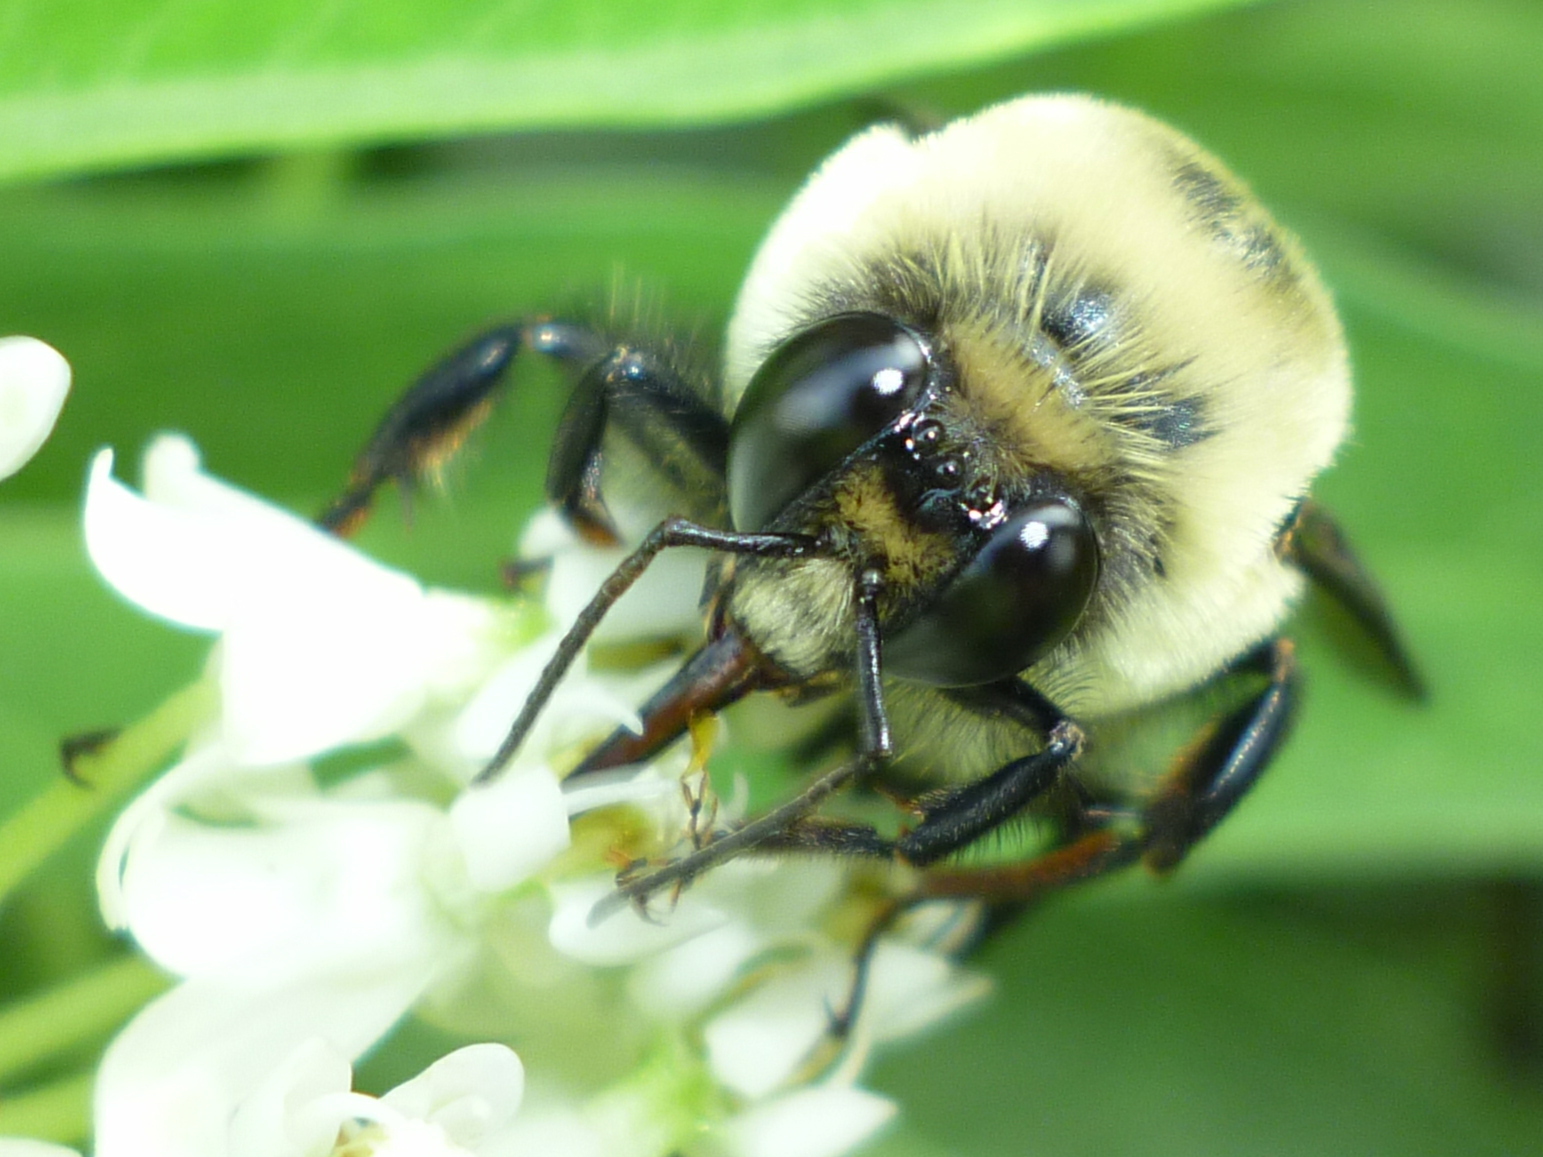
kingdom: Animalia
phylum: Arthropoda
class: Insecta
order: Hymenoptera
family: Apidae
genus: Bombus
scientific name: Bombus griseocollis
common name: Brown-belted bumble bee
